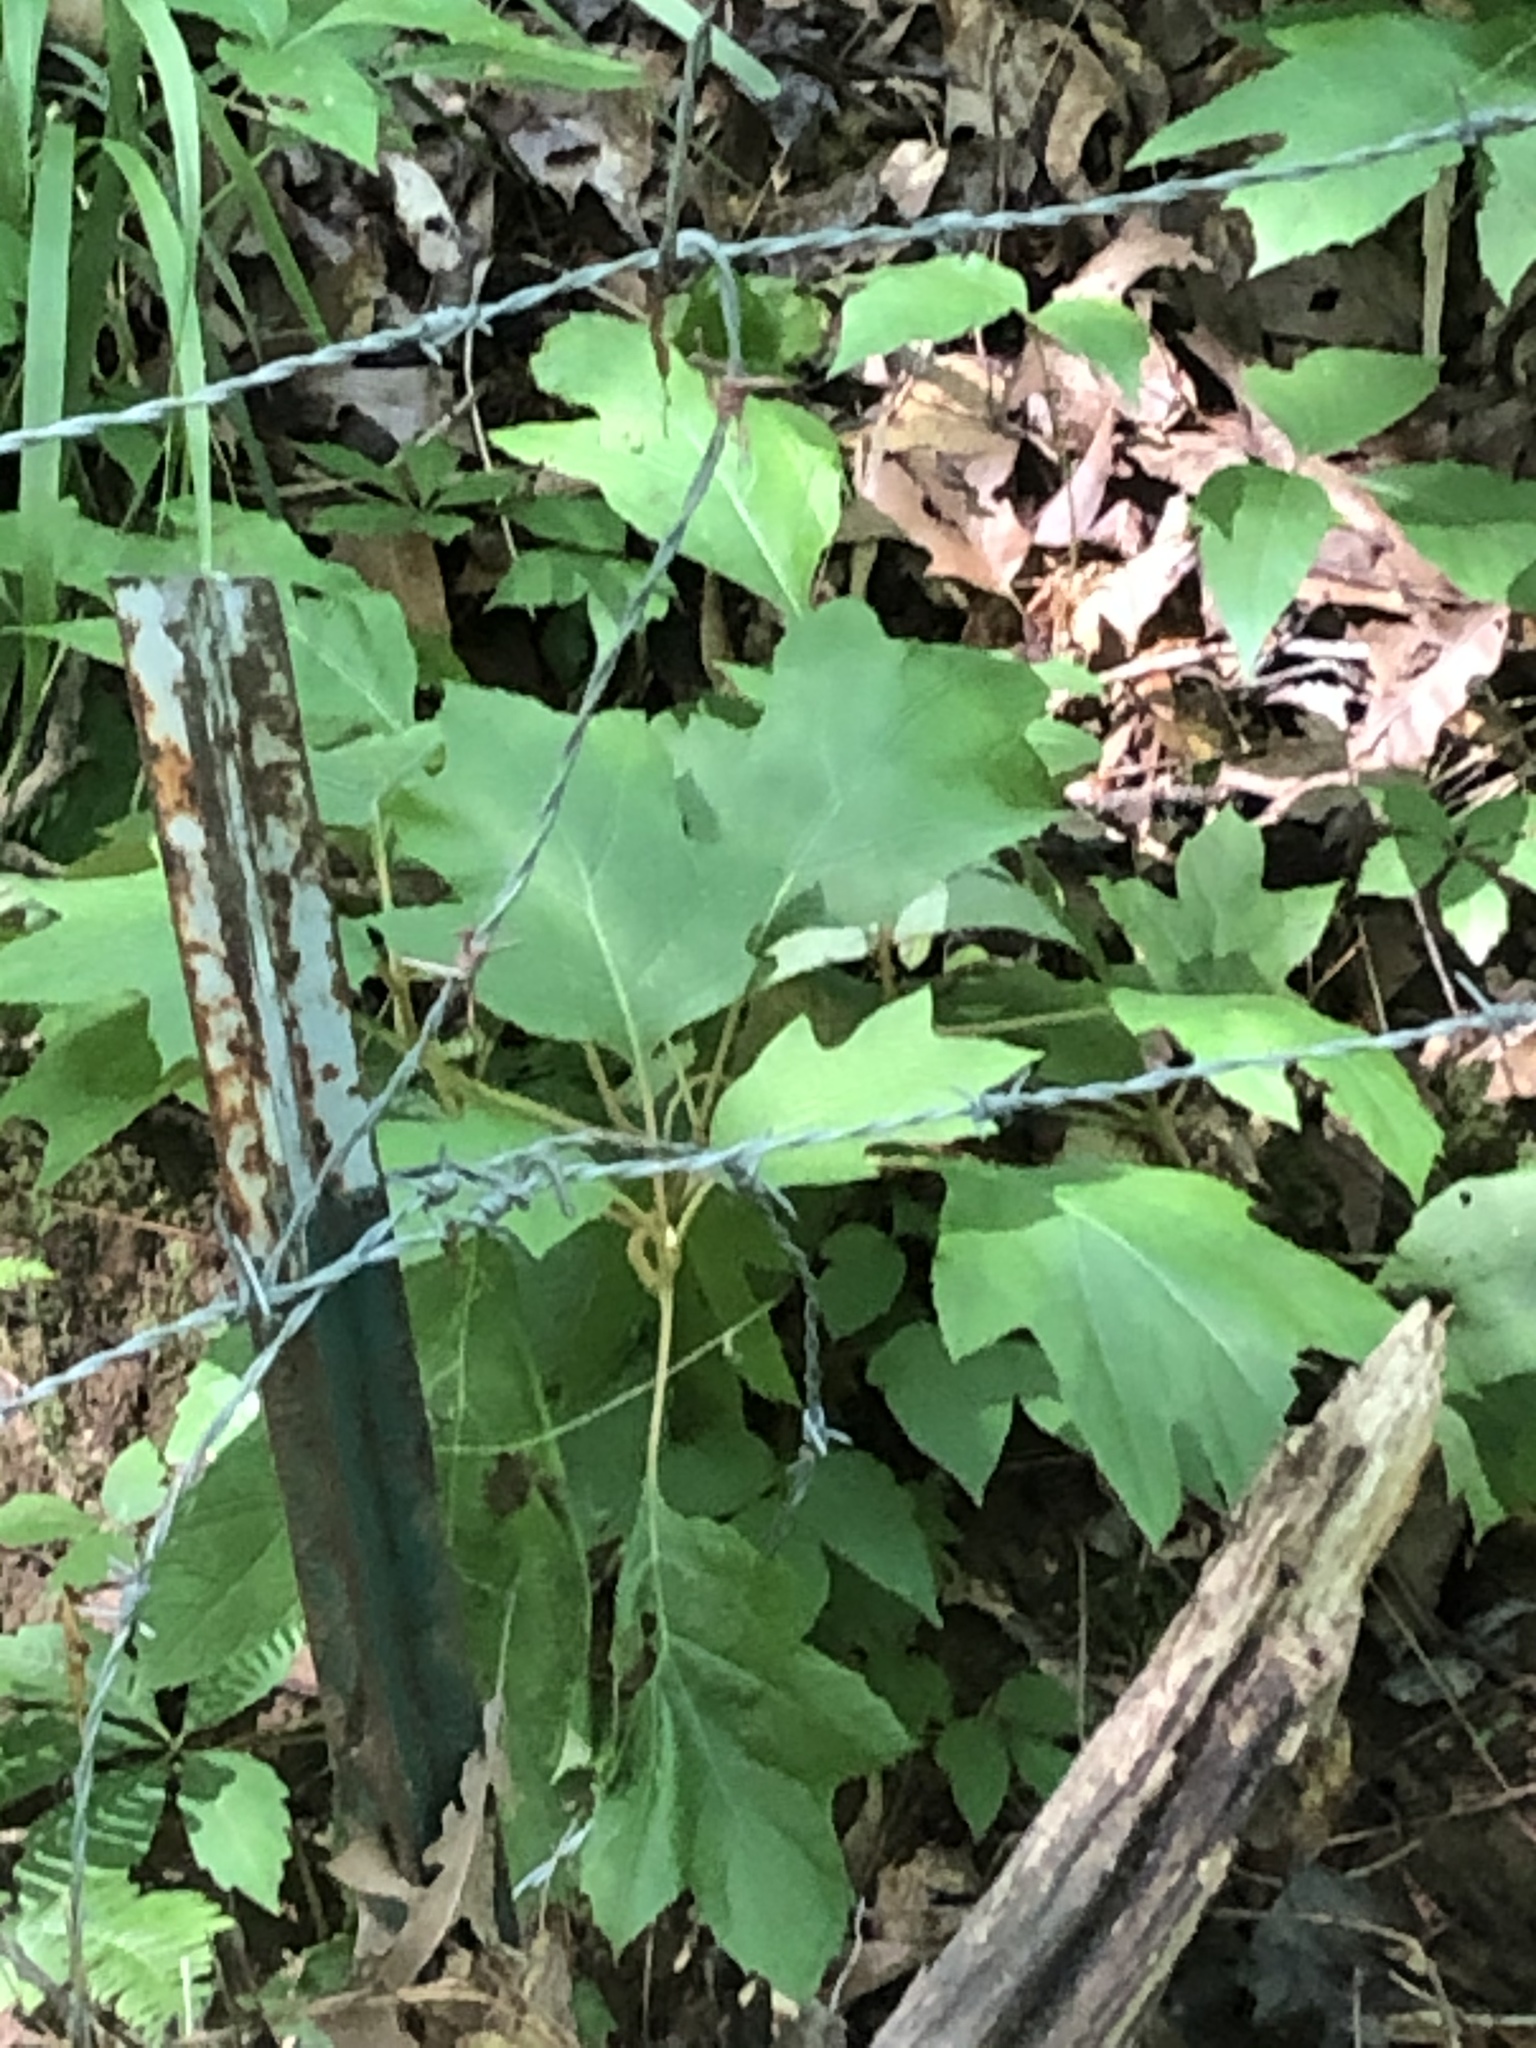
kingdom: Plantae
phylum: Tracheophyta
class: Magnoliopsida
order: Cornales
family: Hydrangeaceae
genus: Hydrangea
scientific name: Hydrangea quercifolia
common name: Oak-leaf hydrangea
